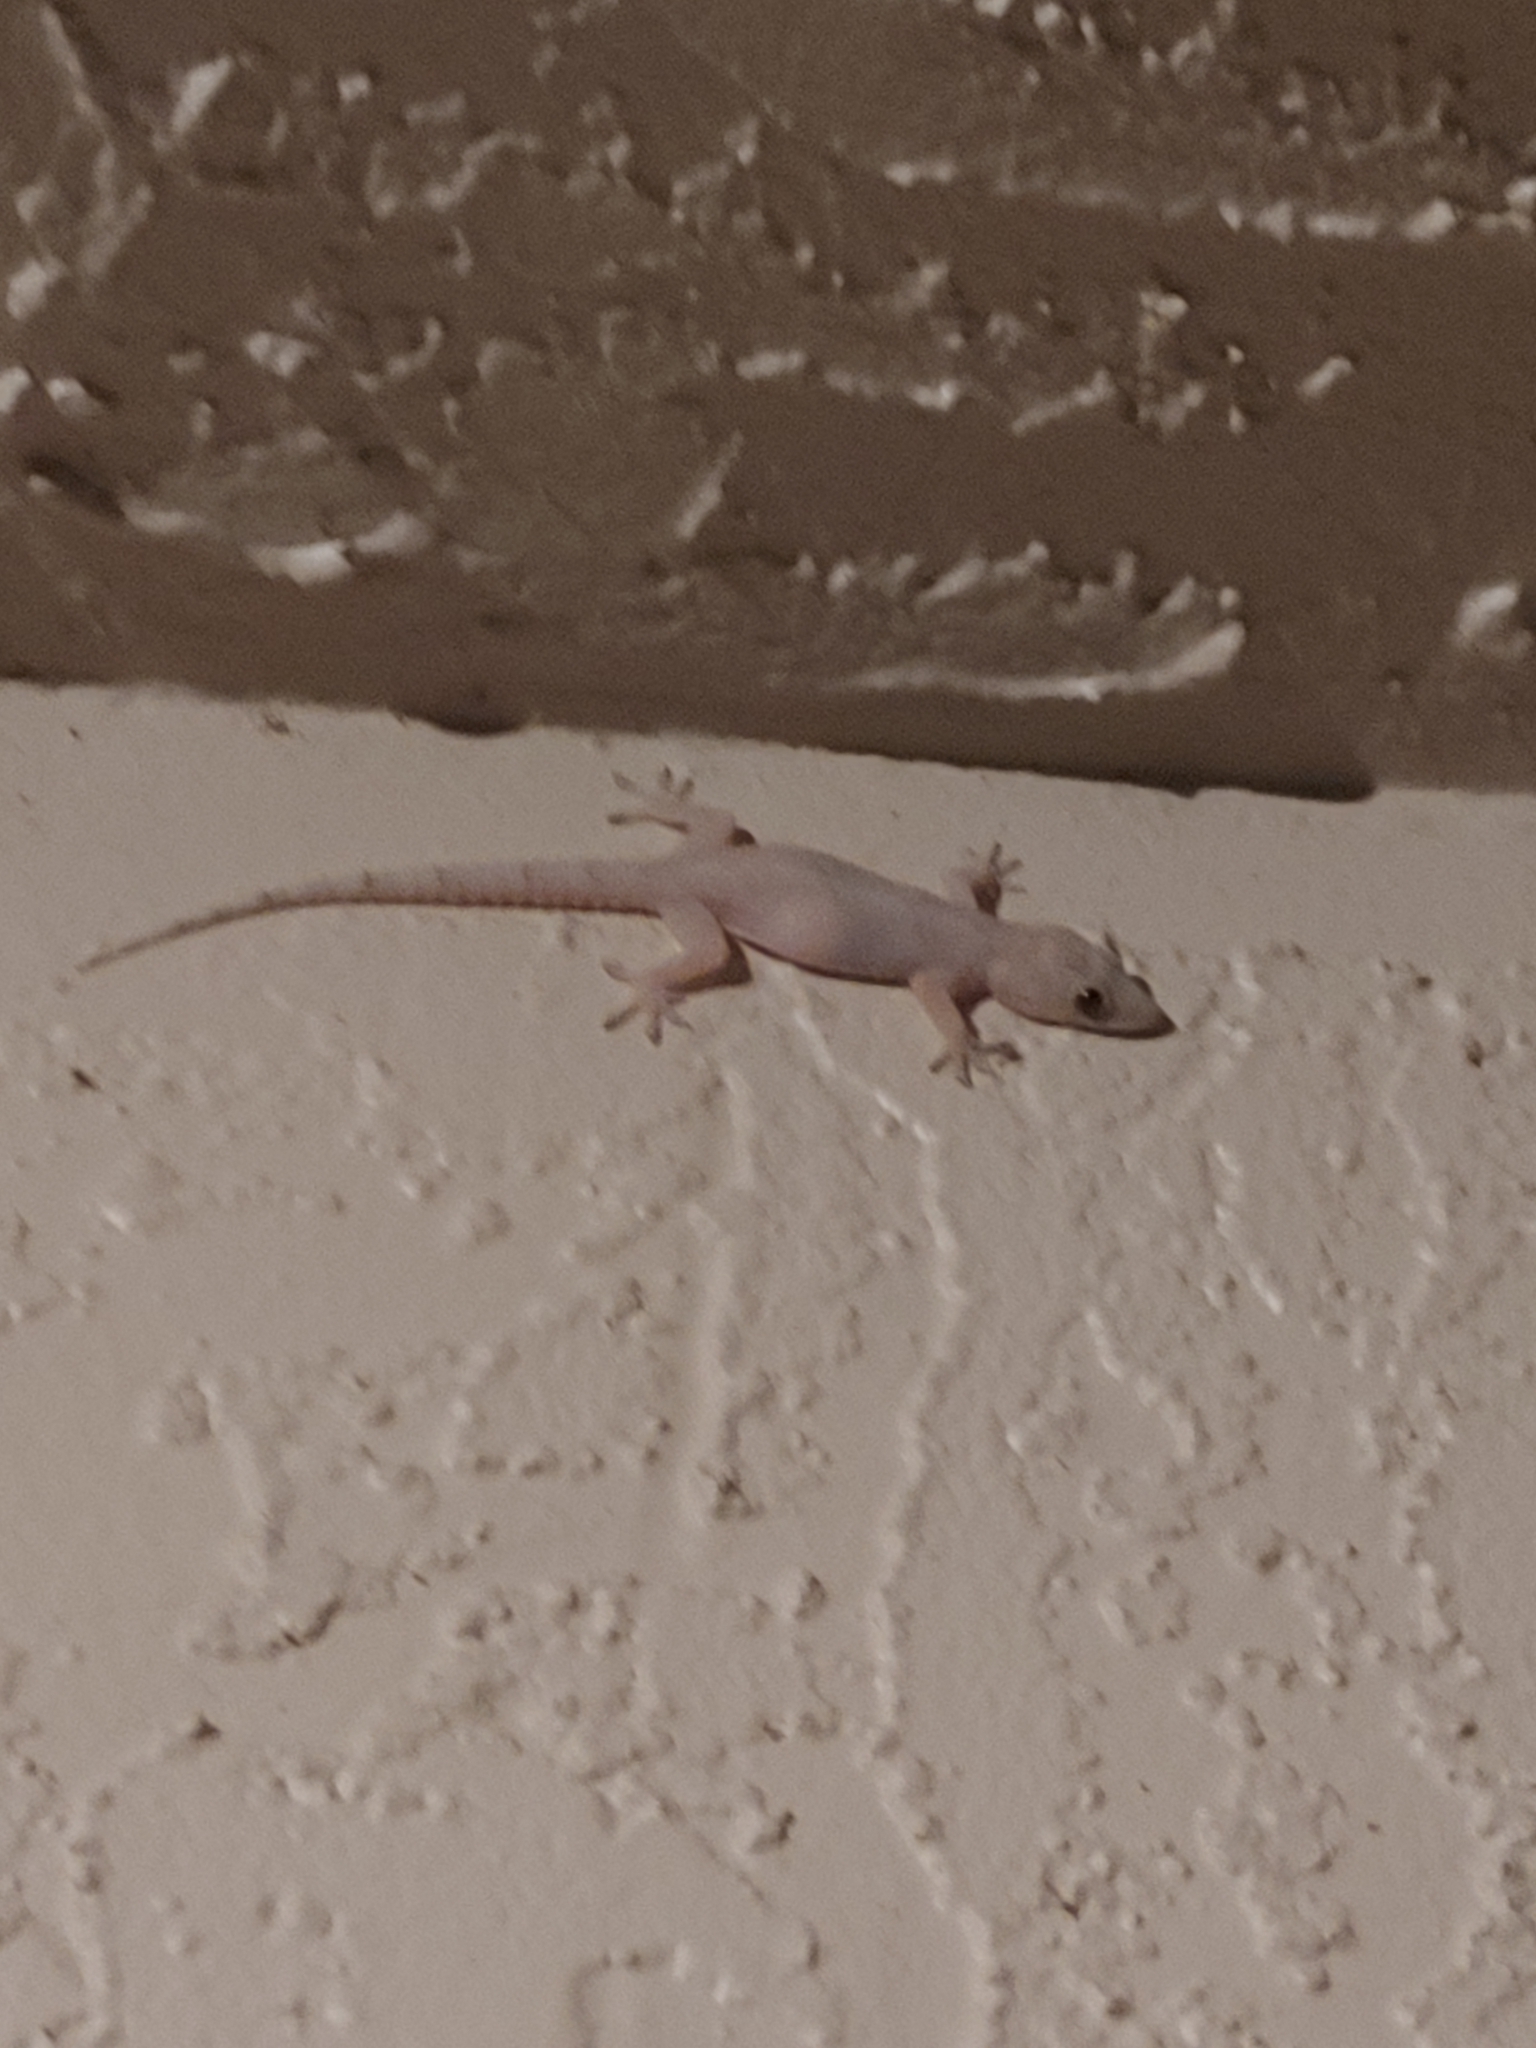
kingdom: Animalia
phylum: Chordata
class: Squamata
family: Gekkonidae
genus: Hemidactylus
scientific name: Hemidactylus mabouia
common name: House gecko
